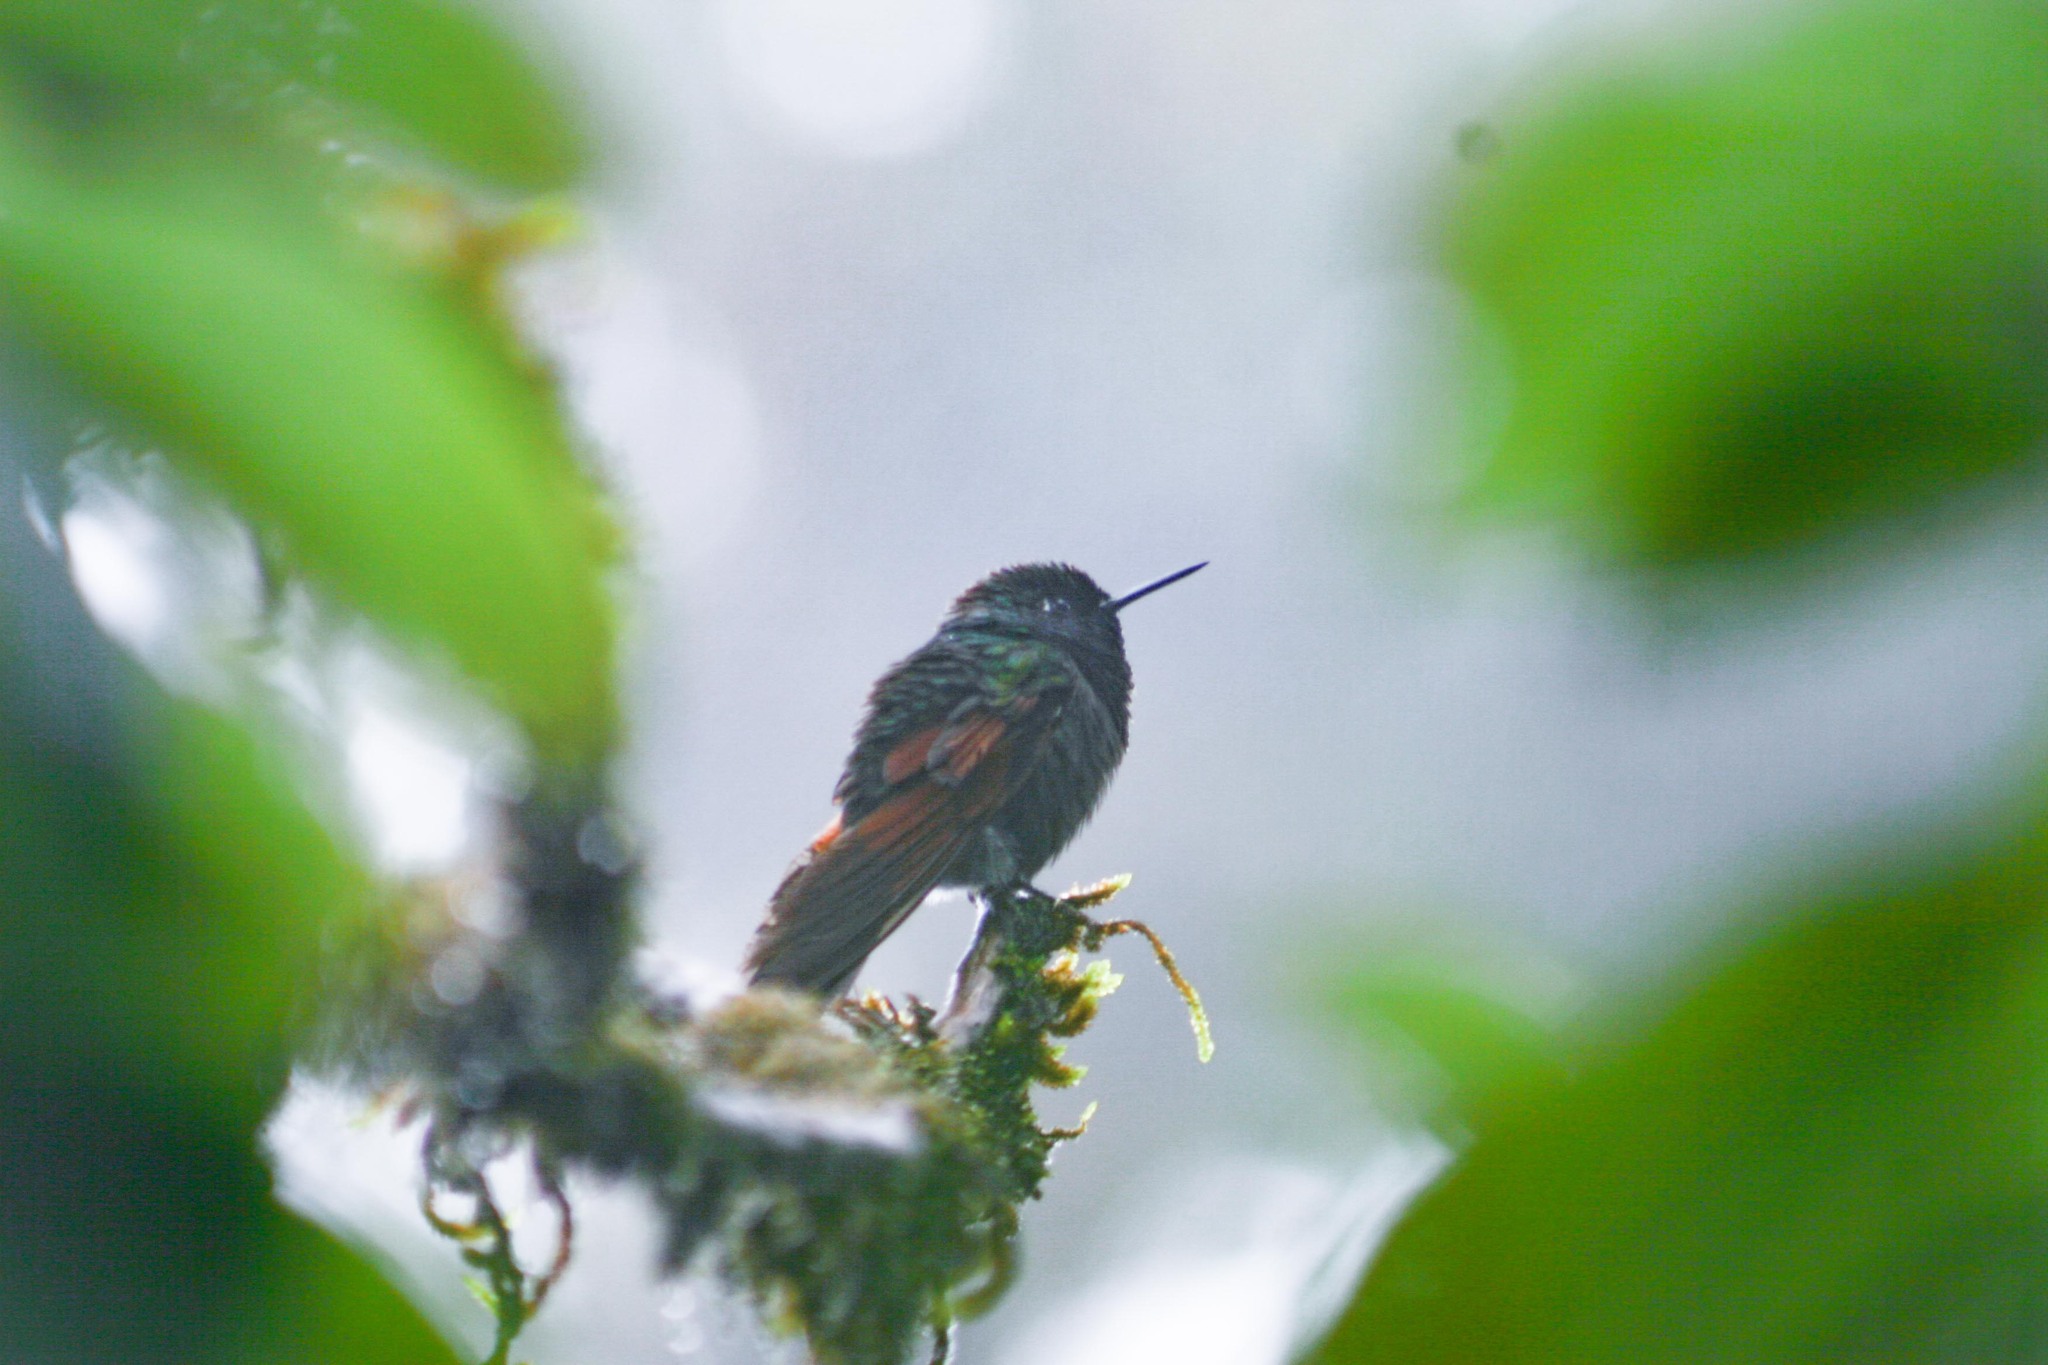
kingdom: Animalia
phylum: Chordata
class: Aves
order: Apodiformes
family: Trochilidae
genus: Lamprolaima
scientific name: Lamprolaima rhami
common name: Garnet-throated hummingbird
